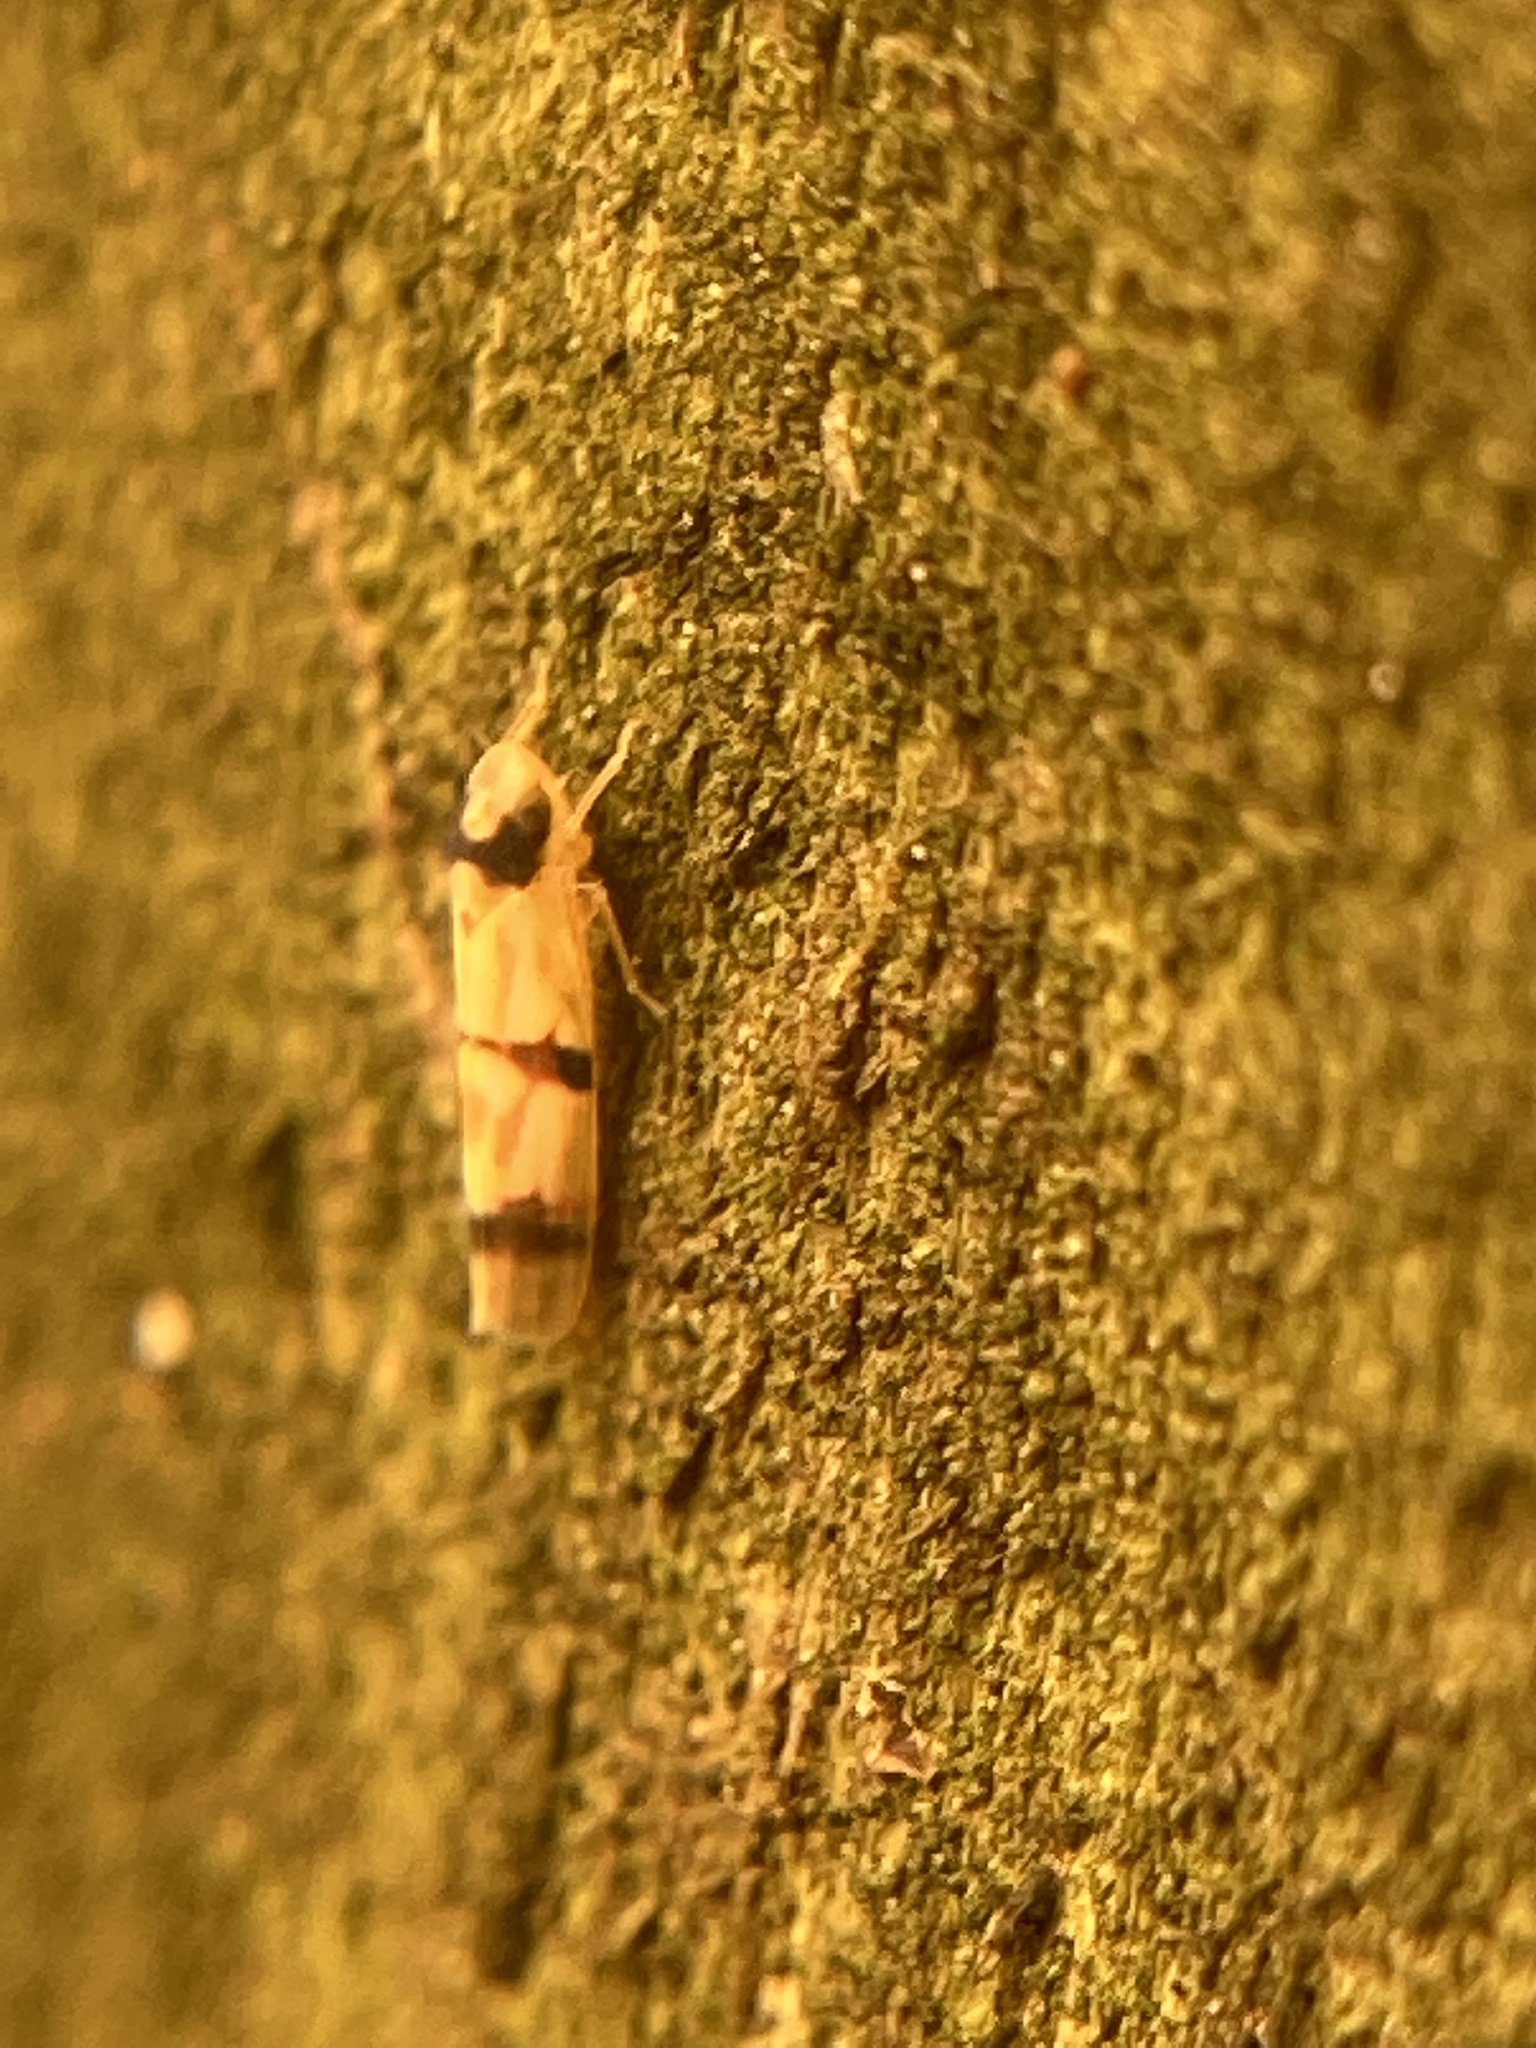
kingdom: Animalia
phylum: Arthropoda
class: Insecta
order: Hemiptera
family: Cicadellidae
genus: Erythroneura
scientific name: Erythroneura cymbium
